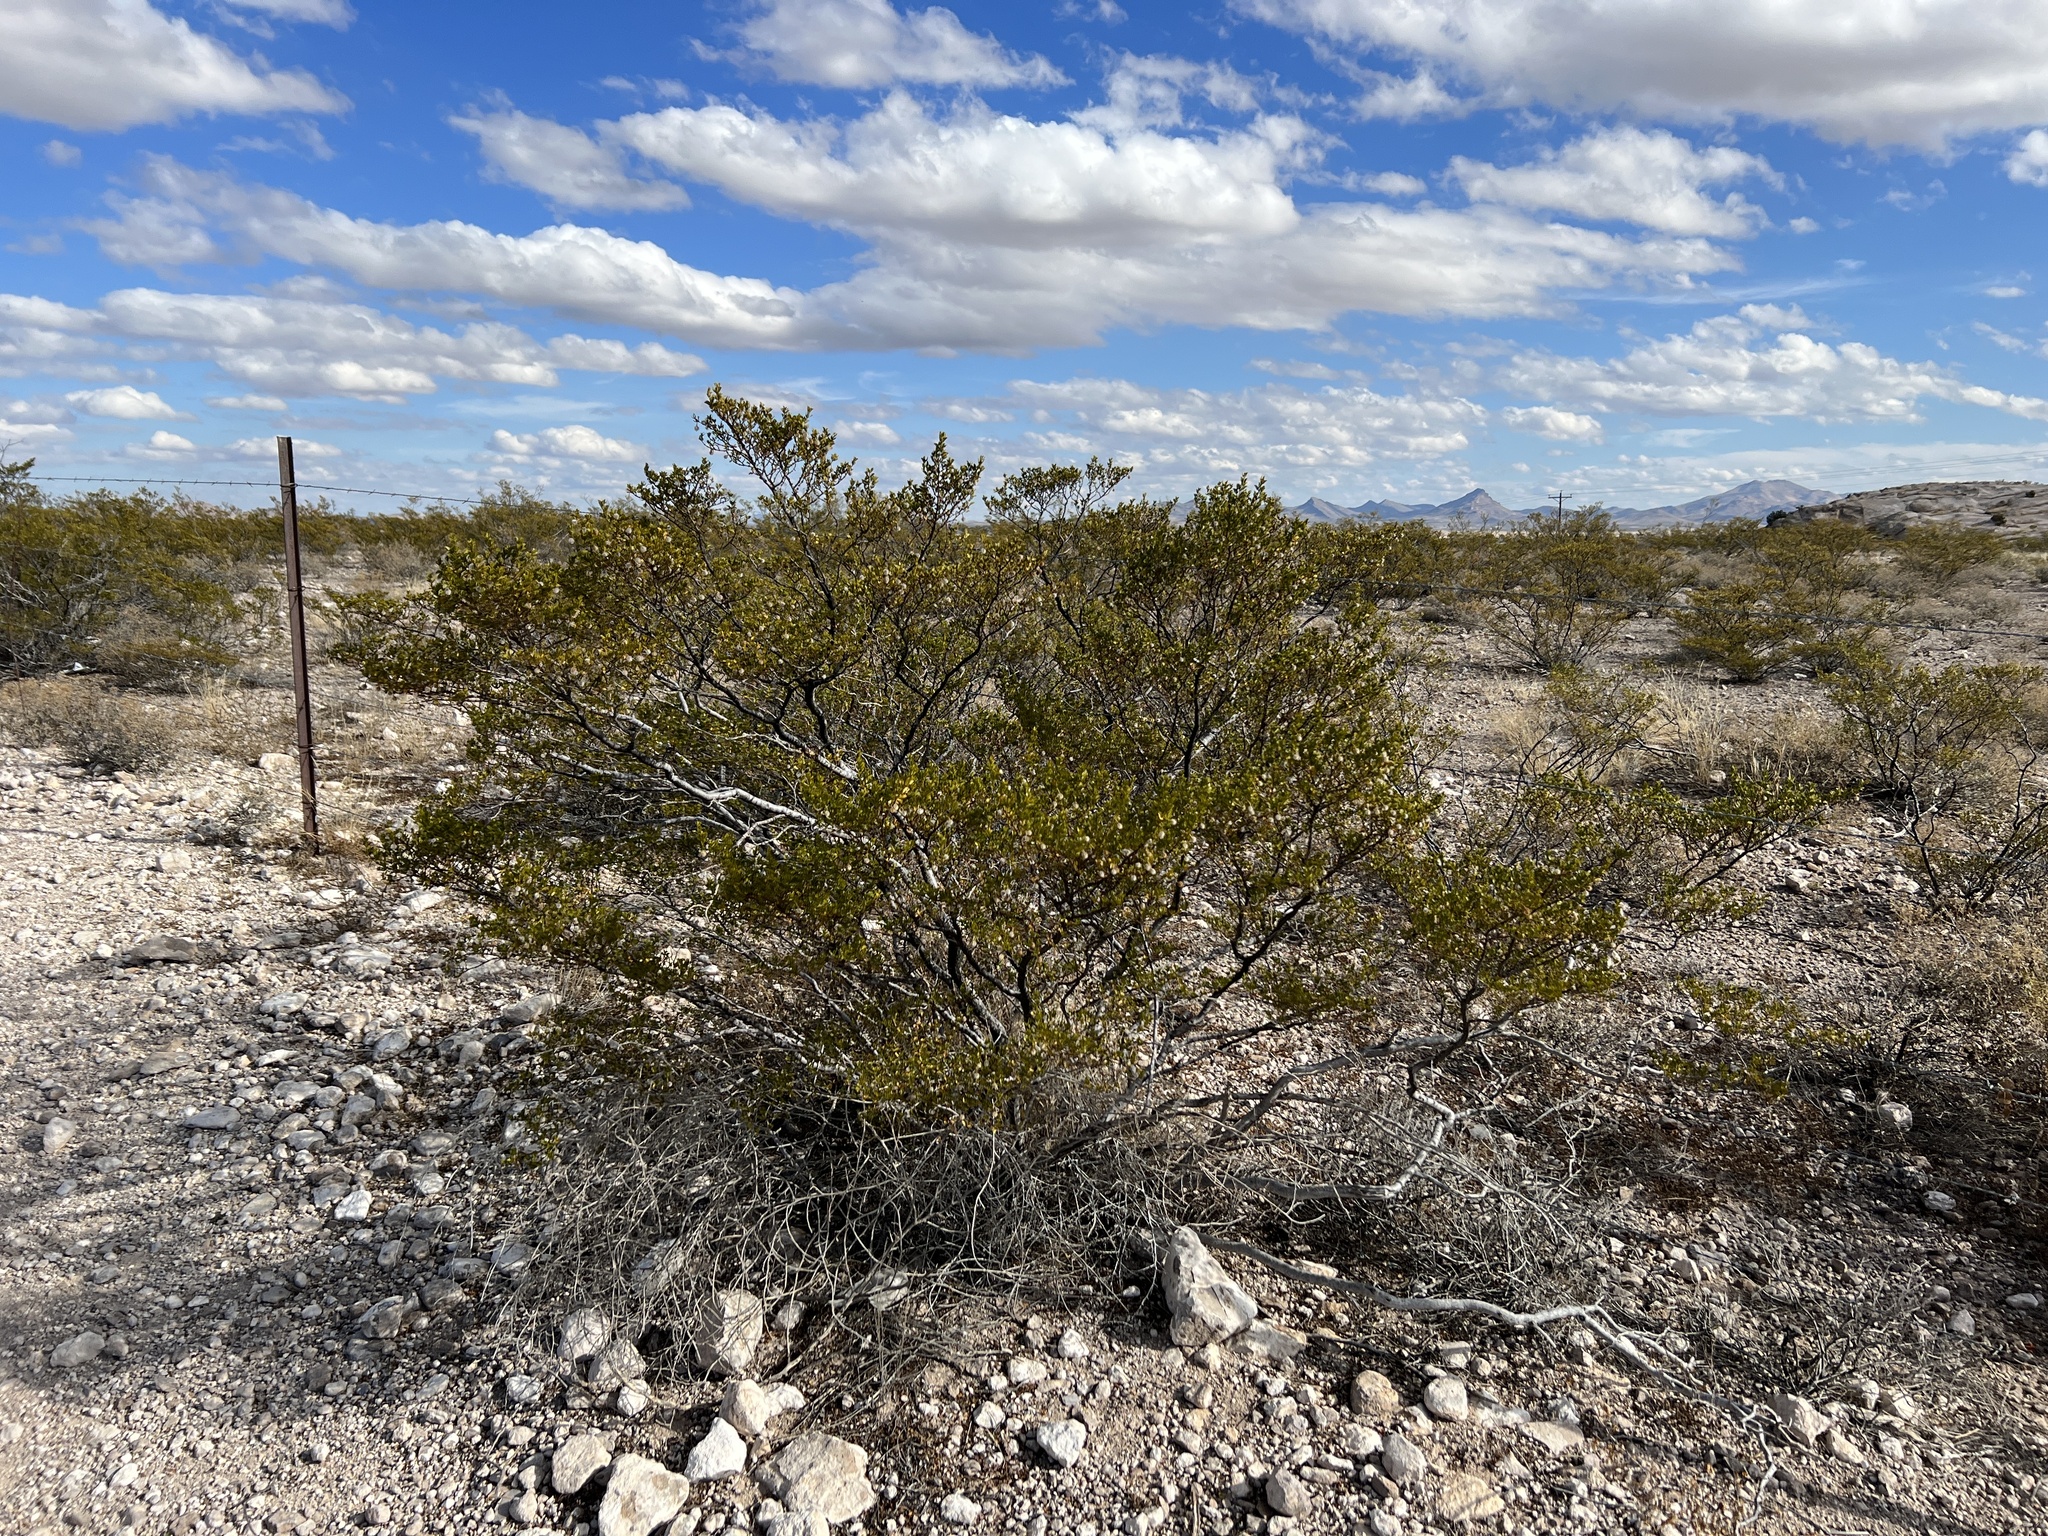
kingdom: Plantae
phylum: Tracheophyta
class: Magnoliopsida
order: Zygophyllales
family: Zygophyllaceae
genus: Larrea
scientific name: Larrea tridentata
